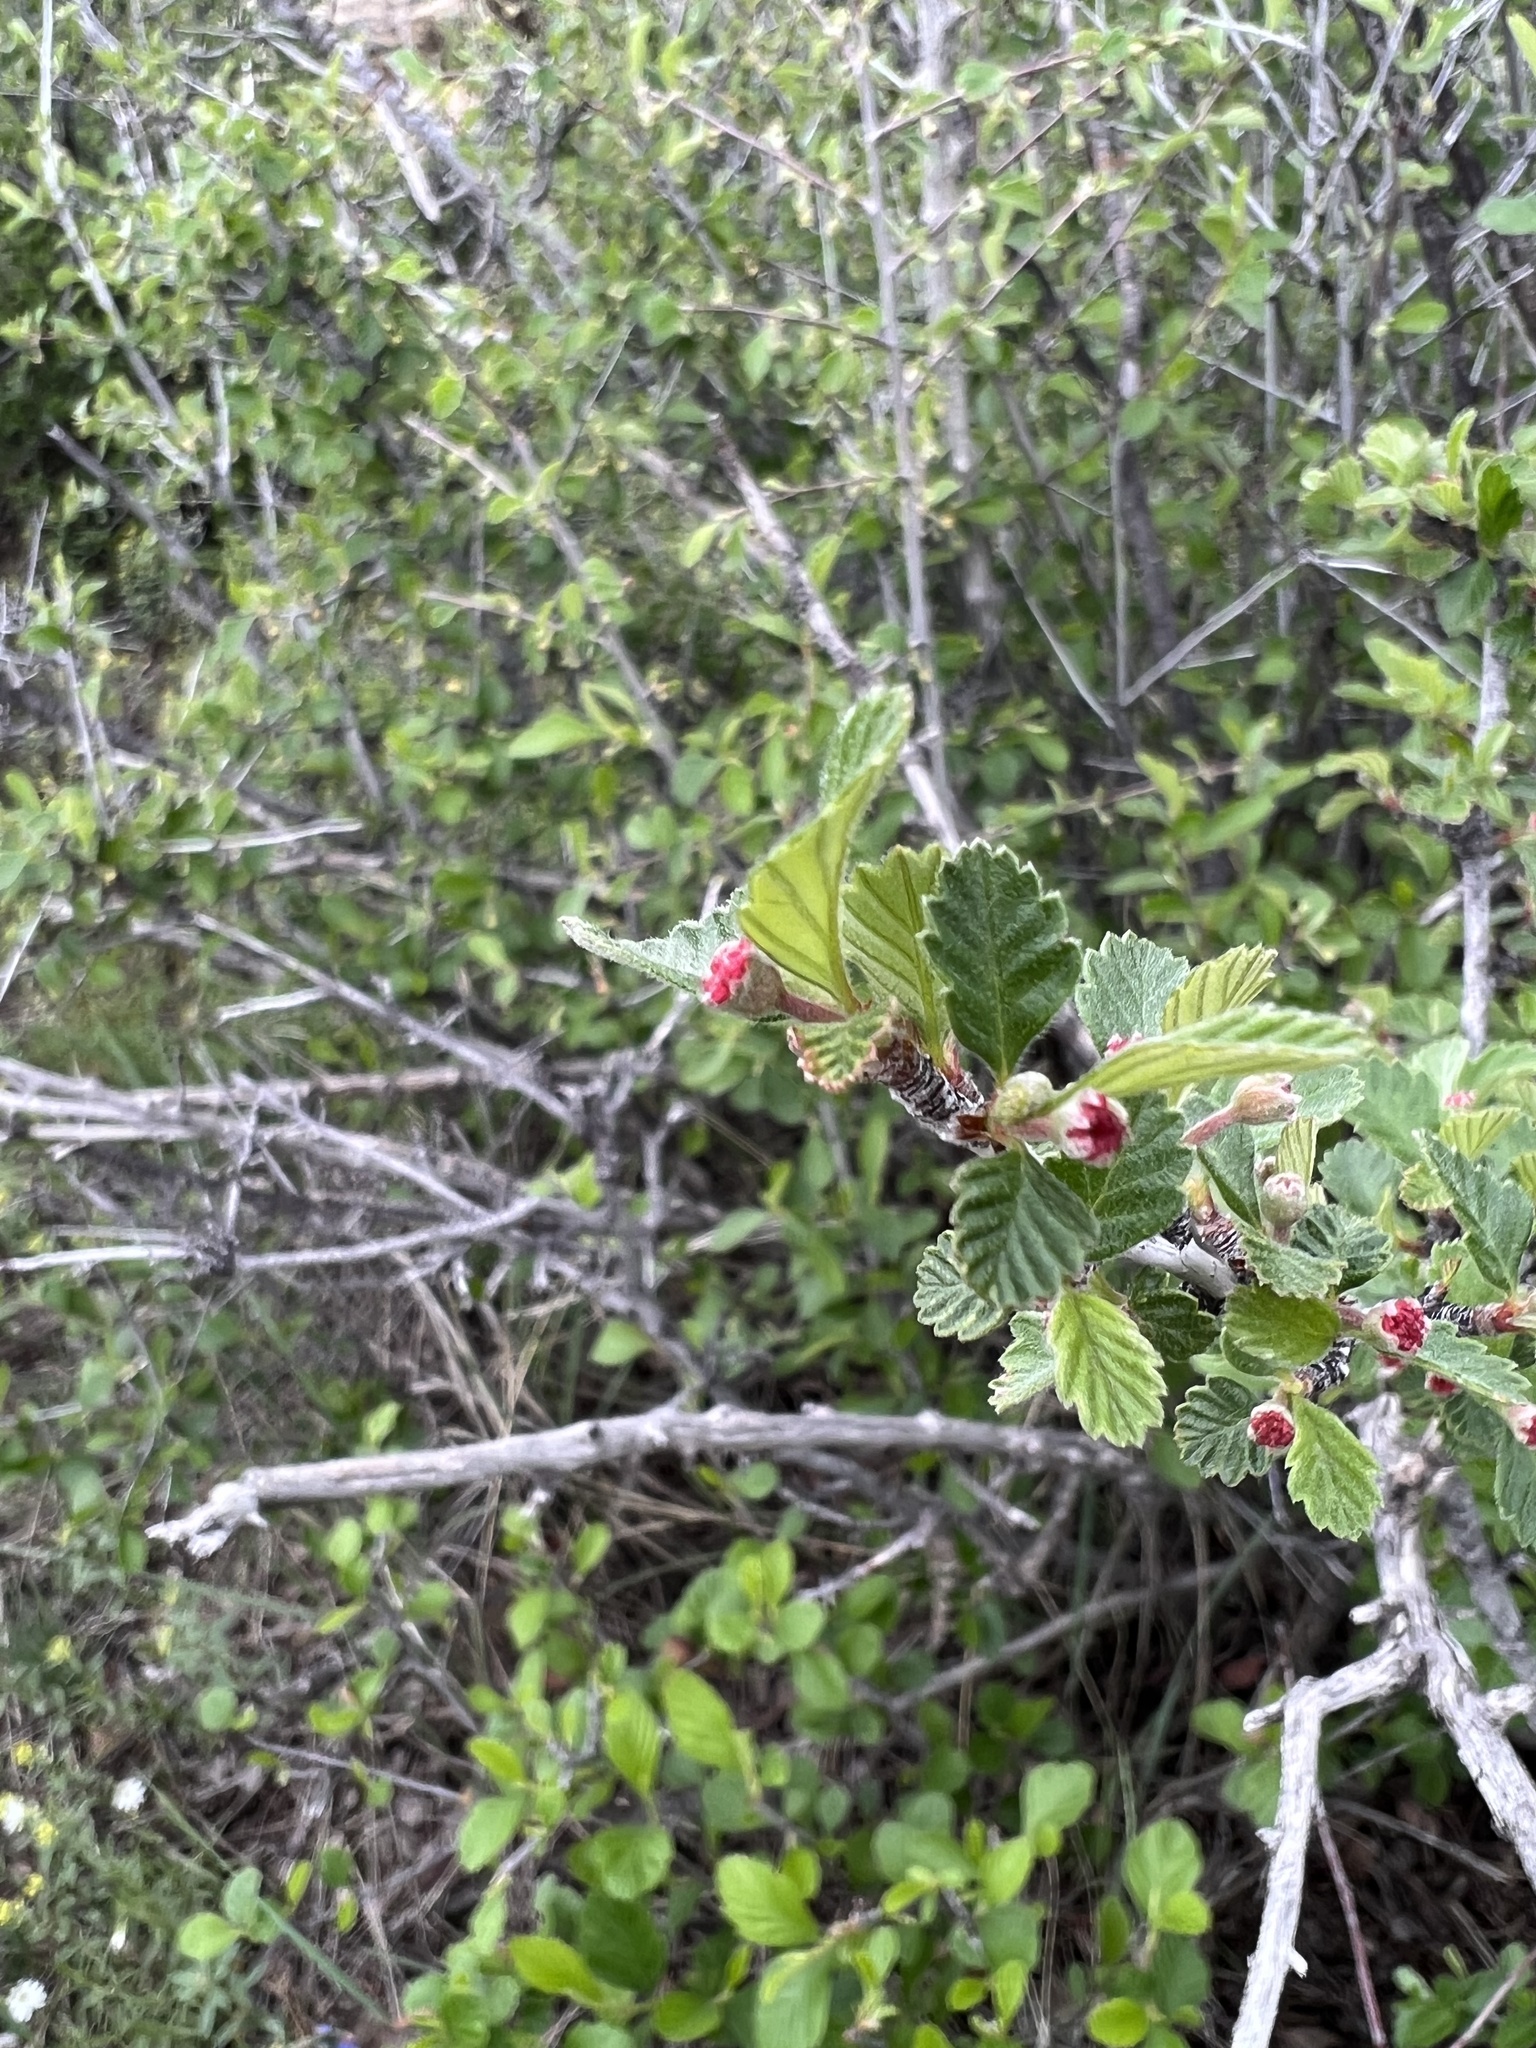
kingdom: Plantae
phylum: Tracheophyta
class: Magnoliopsida
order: Rosales
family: Rosaceae
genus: Cercocarpus
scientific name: Cercocarpus montanus
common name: Alder-leaf cercocarpus
